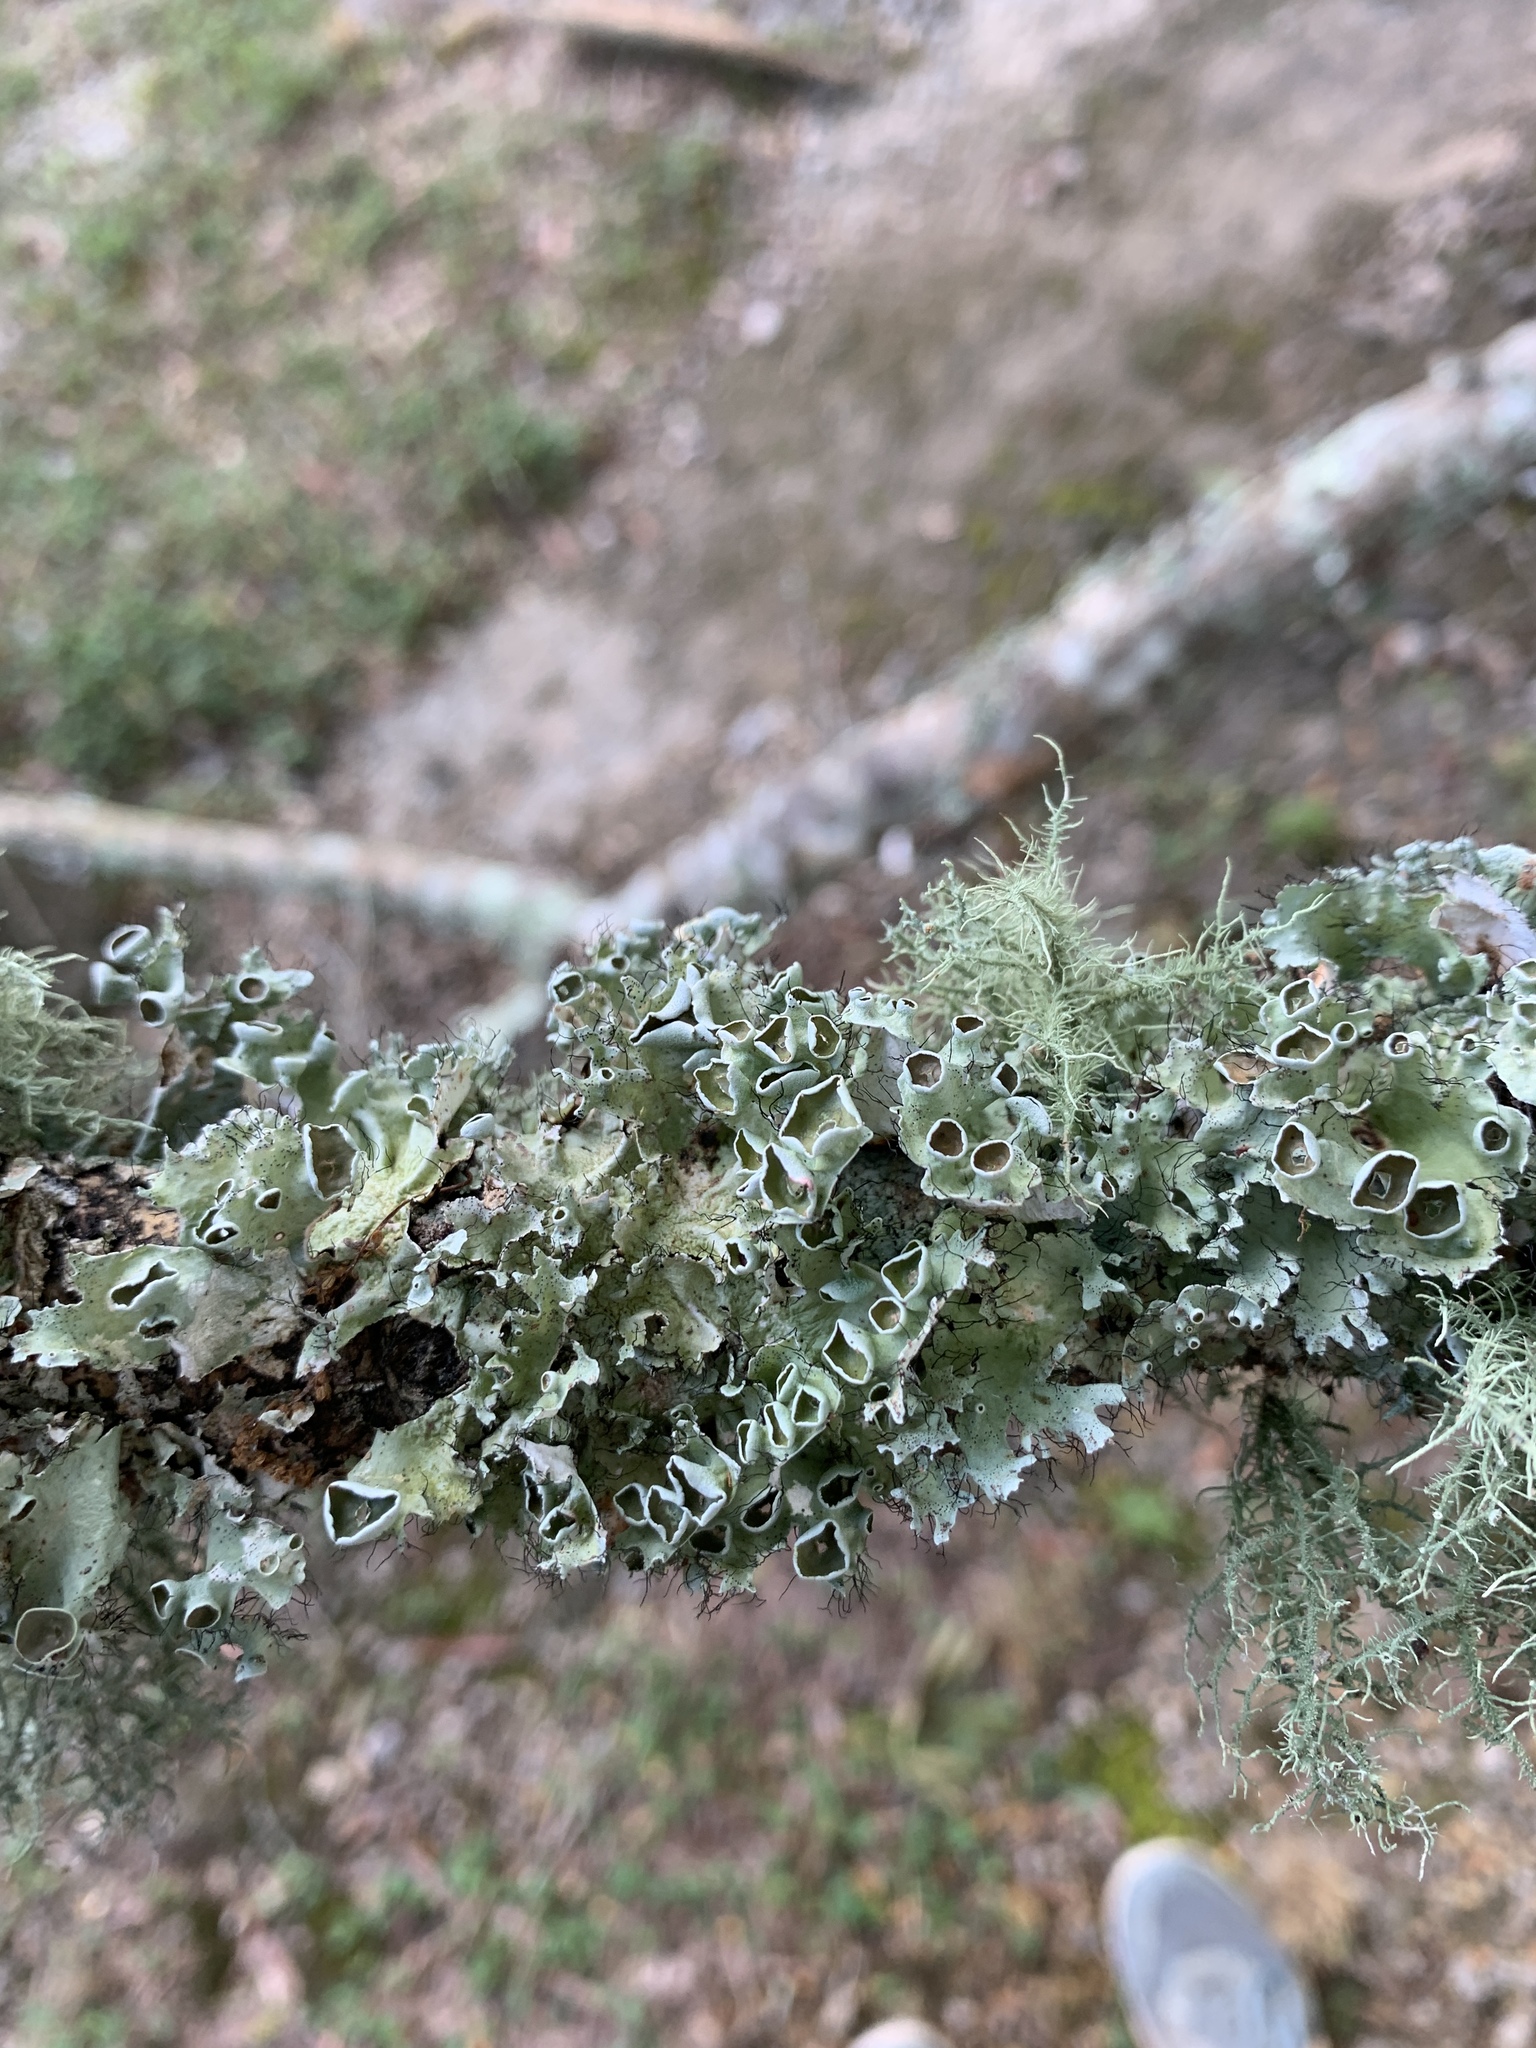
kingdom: Fungi
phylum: Ascomycota
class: Lecanoromycetes
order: Lecanorales
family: Parmeliaceae
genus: Parmotrema
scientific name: Parmotrema perforatum
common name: Perforated ruffle lichen
